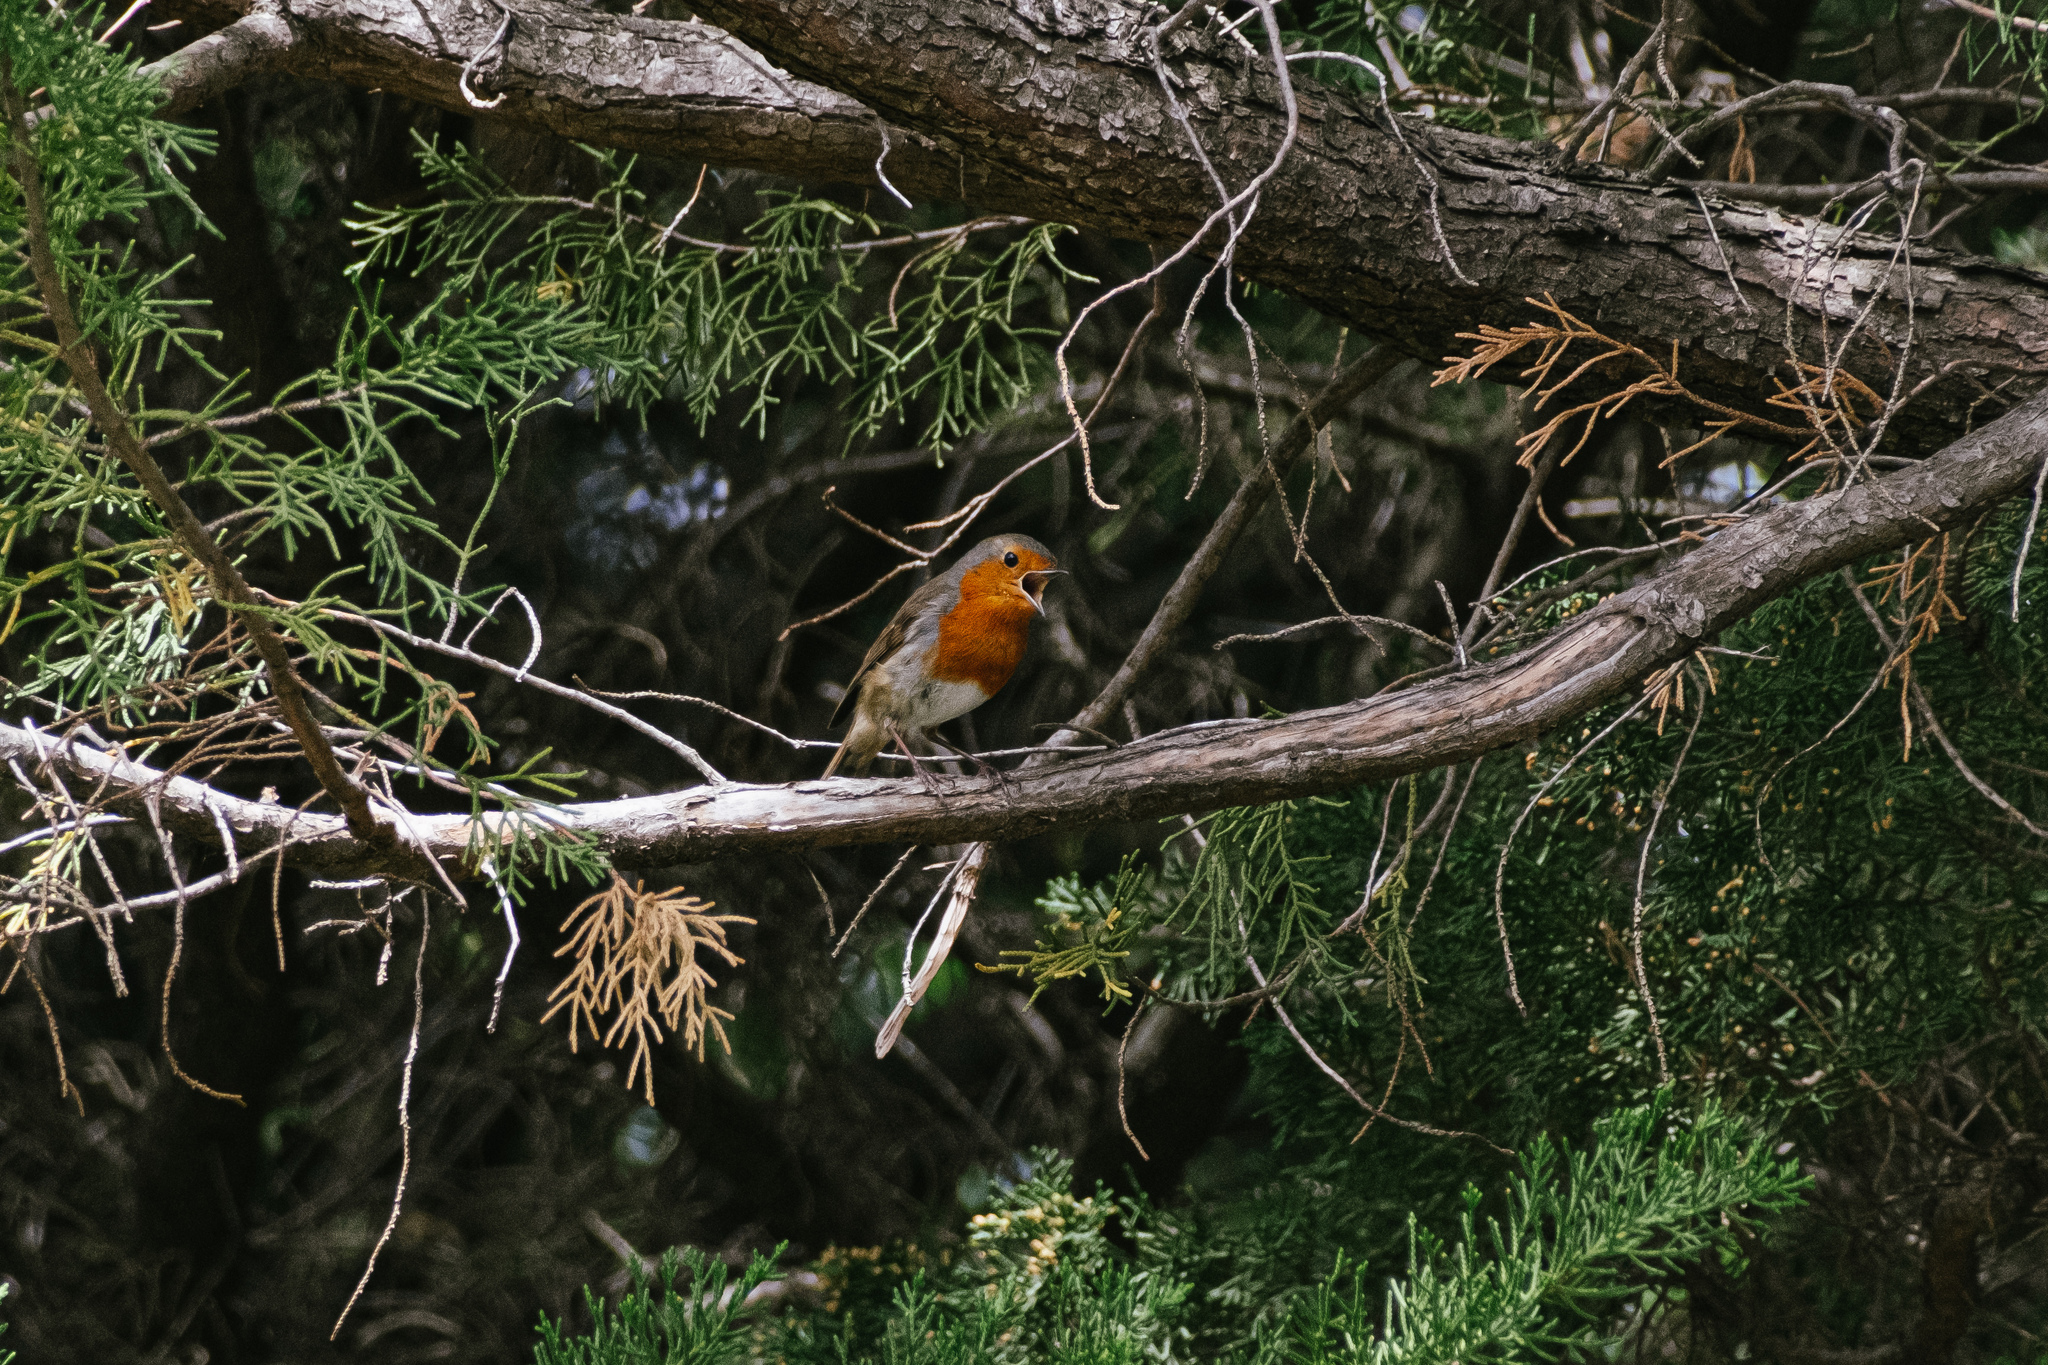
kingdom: Animalia
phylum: Chordata
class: Aves
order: Passeriformes
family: Muscicapidae
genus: Erithacus
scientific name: Erithacus rubecula
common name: European robin
